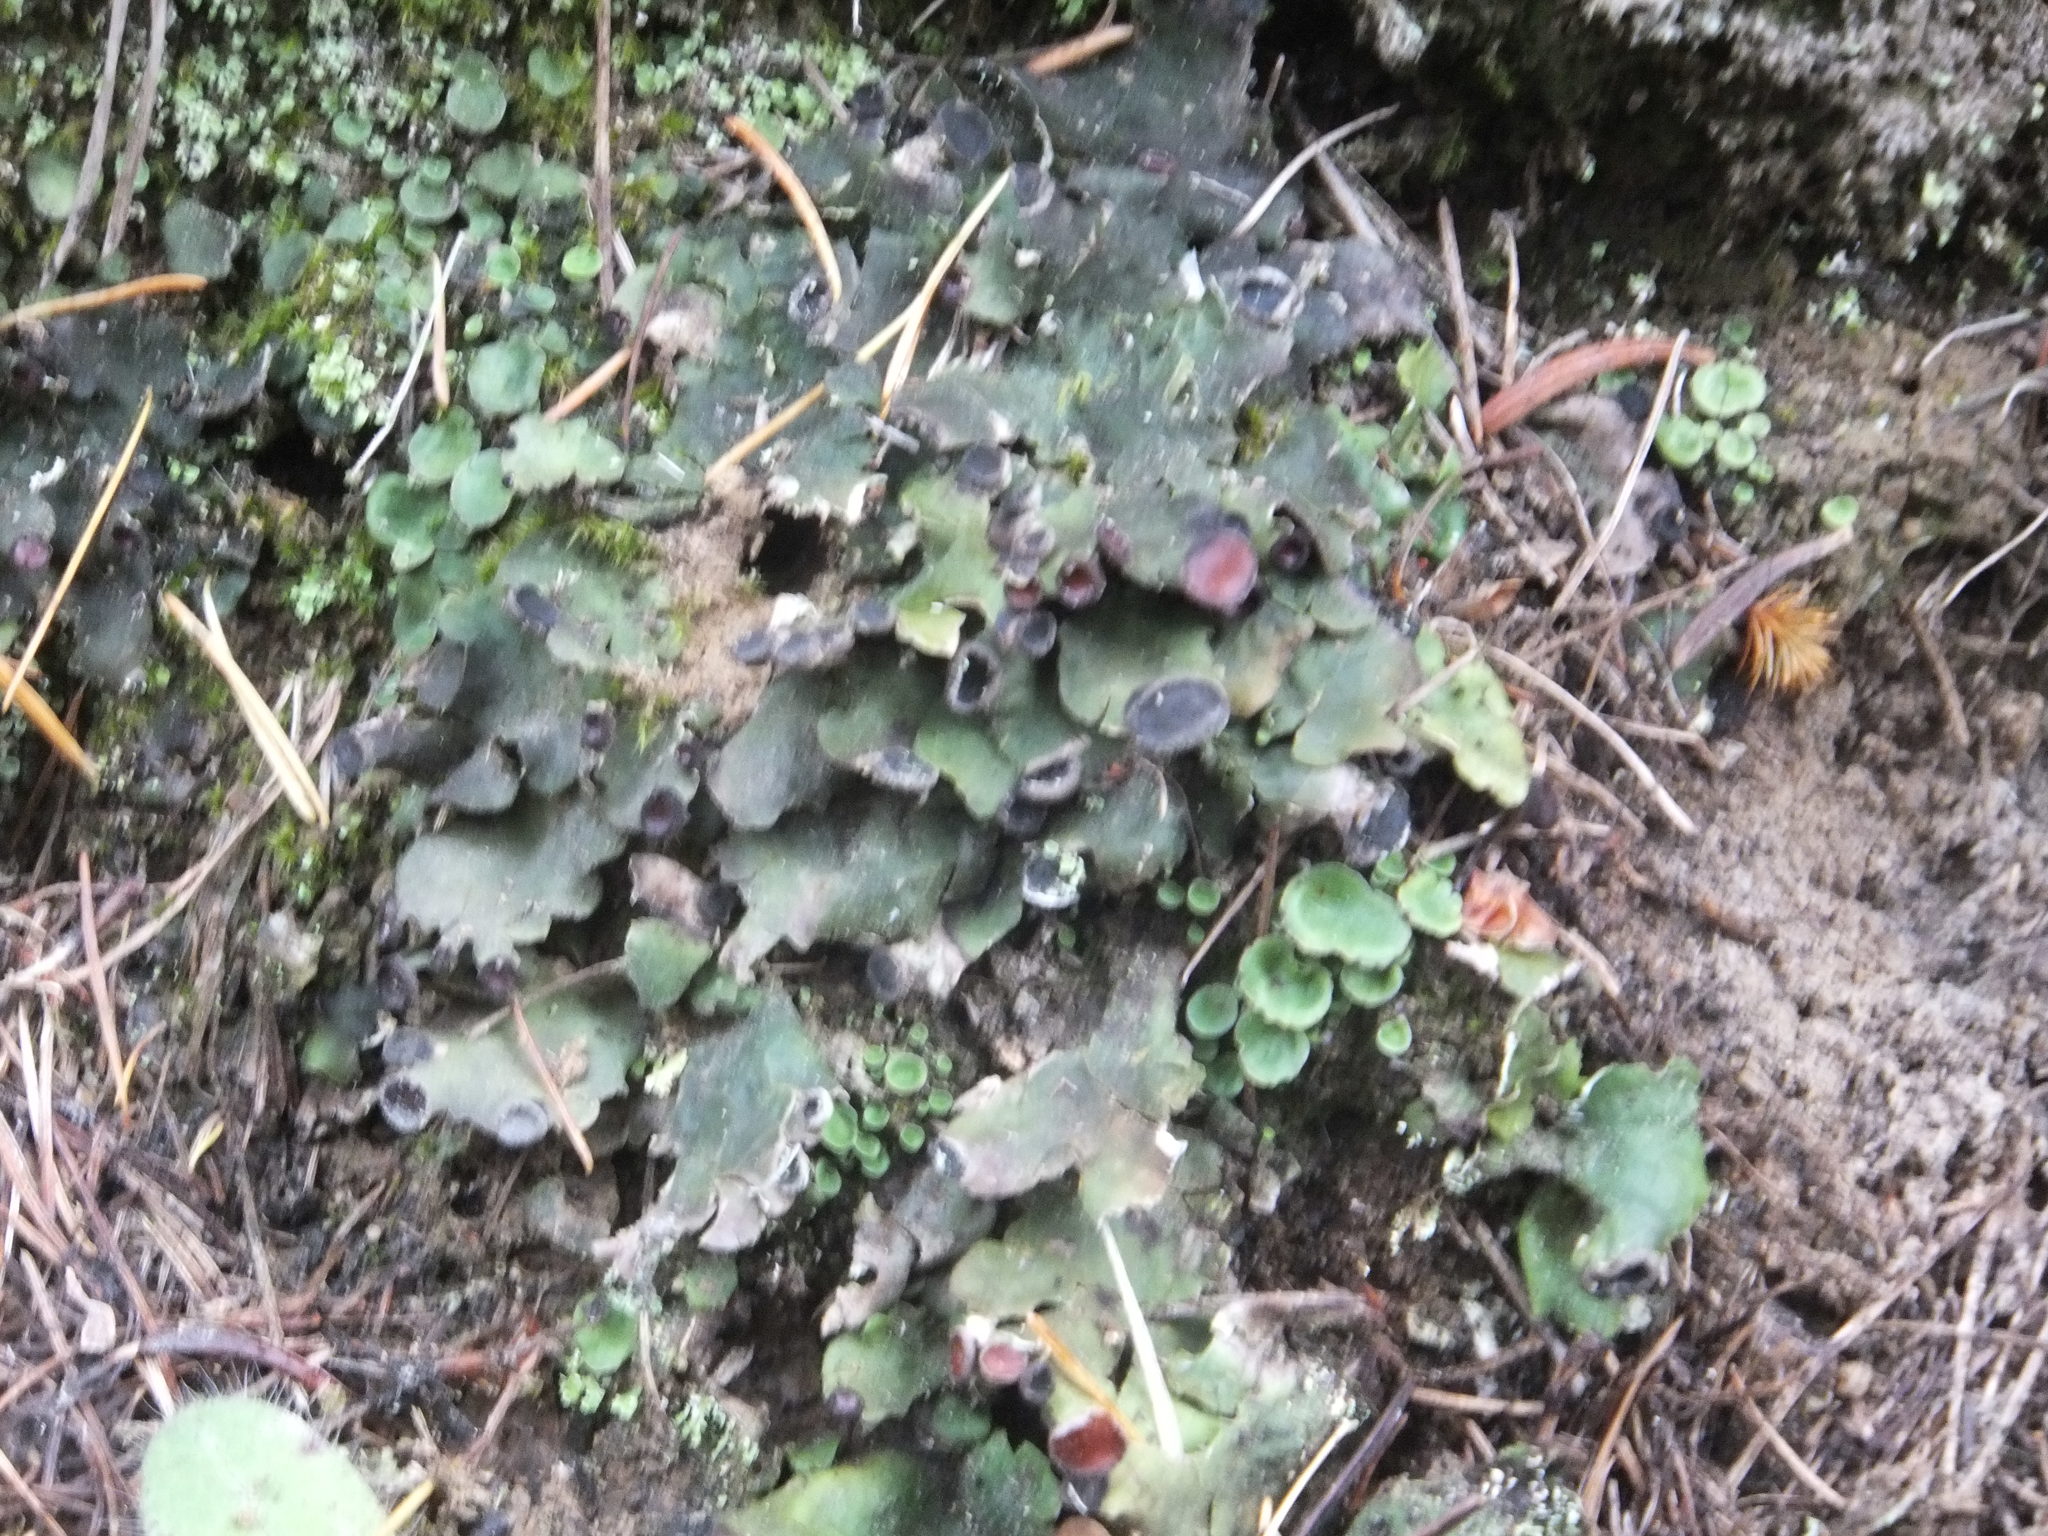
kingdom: Fungi
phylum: Ascomycota
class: Lecanoromycetes
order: Peltigerales
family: Peltigeraceae
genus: Peltigera
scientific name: Peltigera venosa
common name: Pixie gowns lichen
